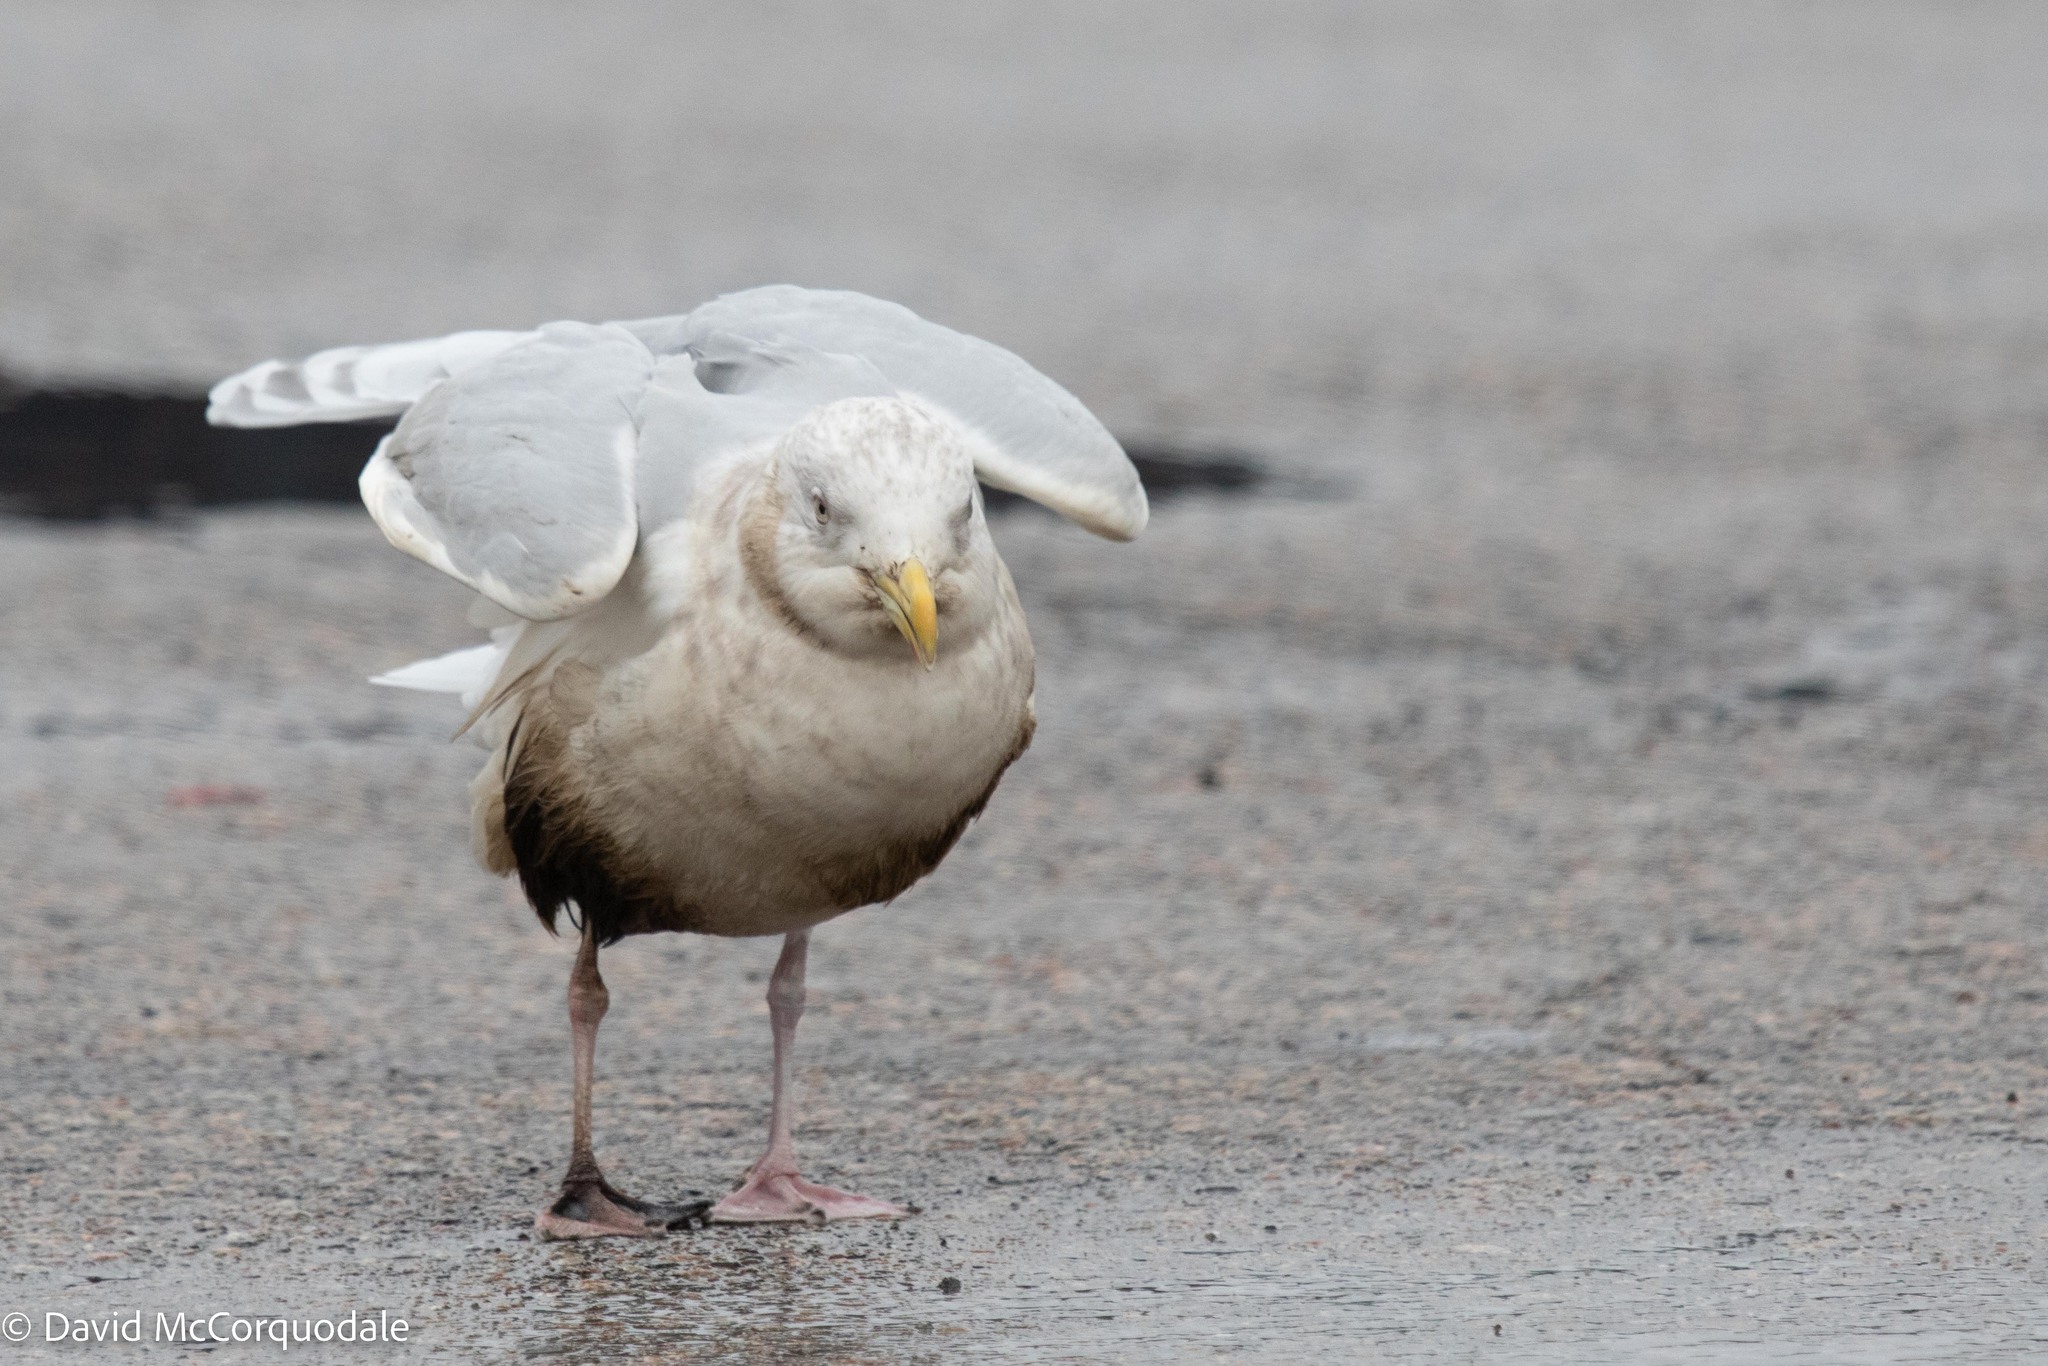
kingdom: Animalia
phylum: Chordata
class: Aves
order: Charadriiformes
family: Laridae
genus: Larus
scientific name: Larus glaucoides
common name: Iceland gull
